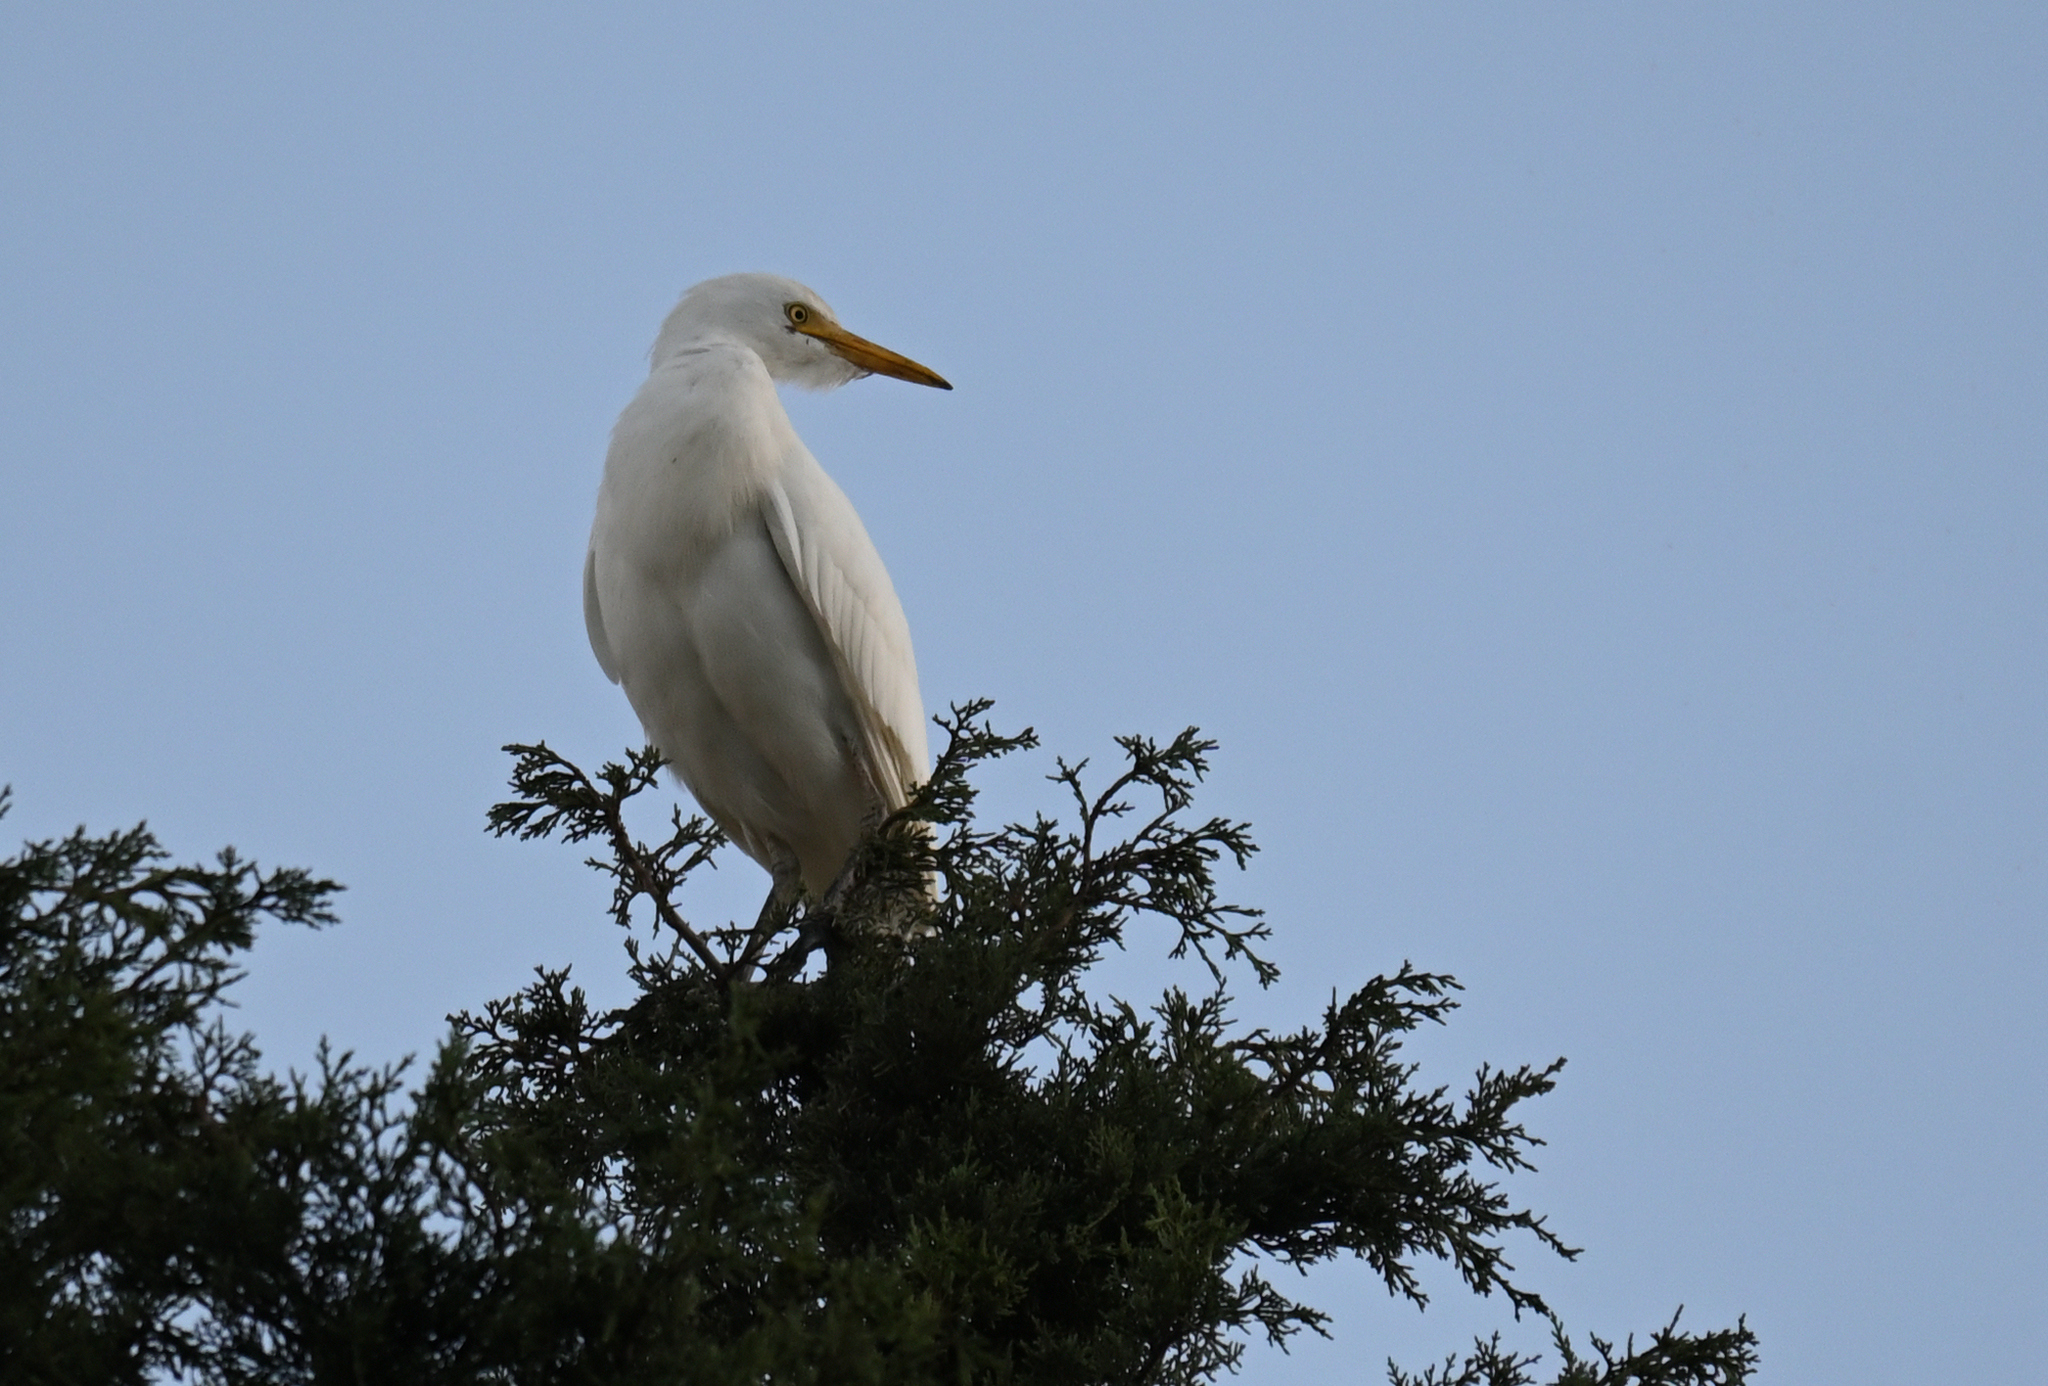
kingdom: Animalia
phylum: Chordata
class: Aves
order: Pelecaniformes
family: Ardeidae
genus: Bubulcus
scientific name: Bubulcus ibis
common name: Cattle egret
